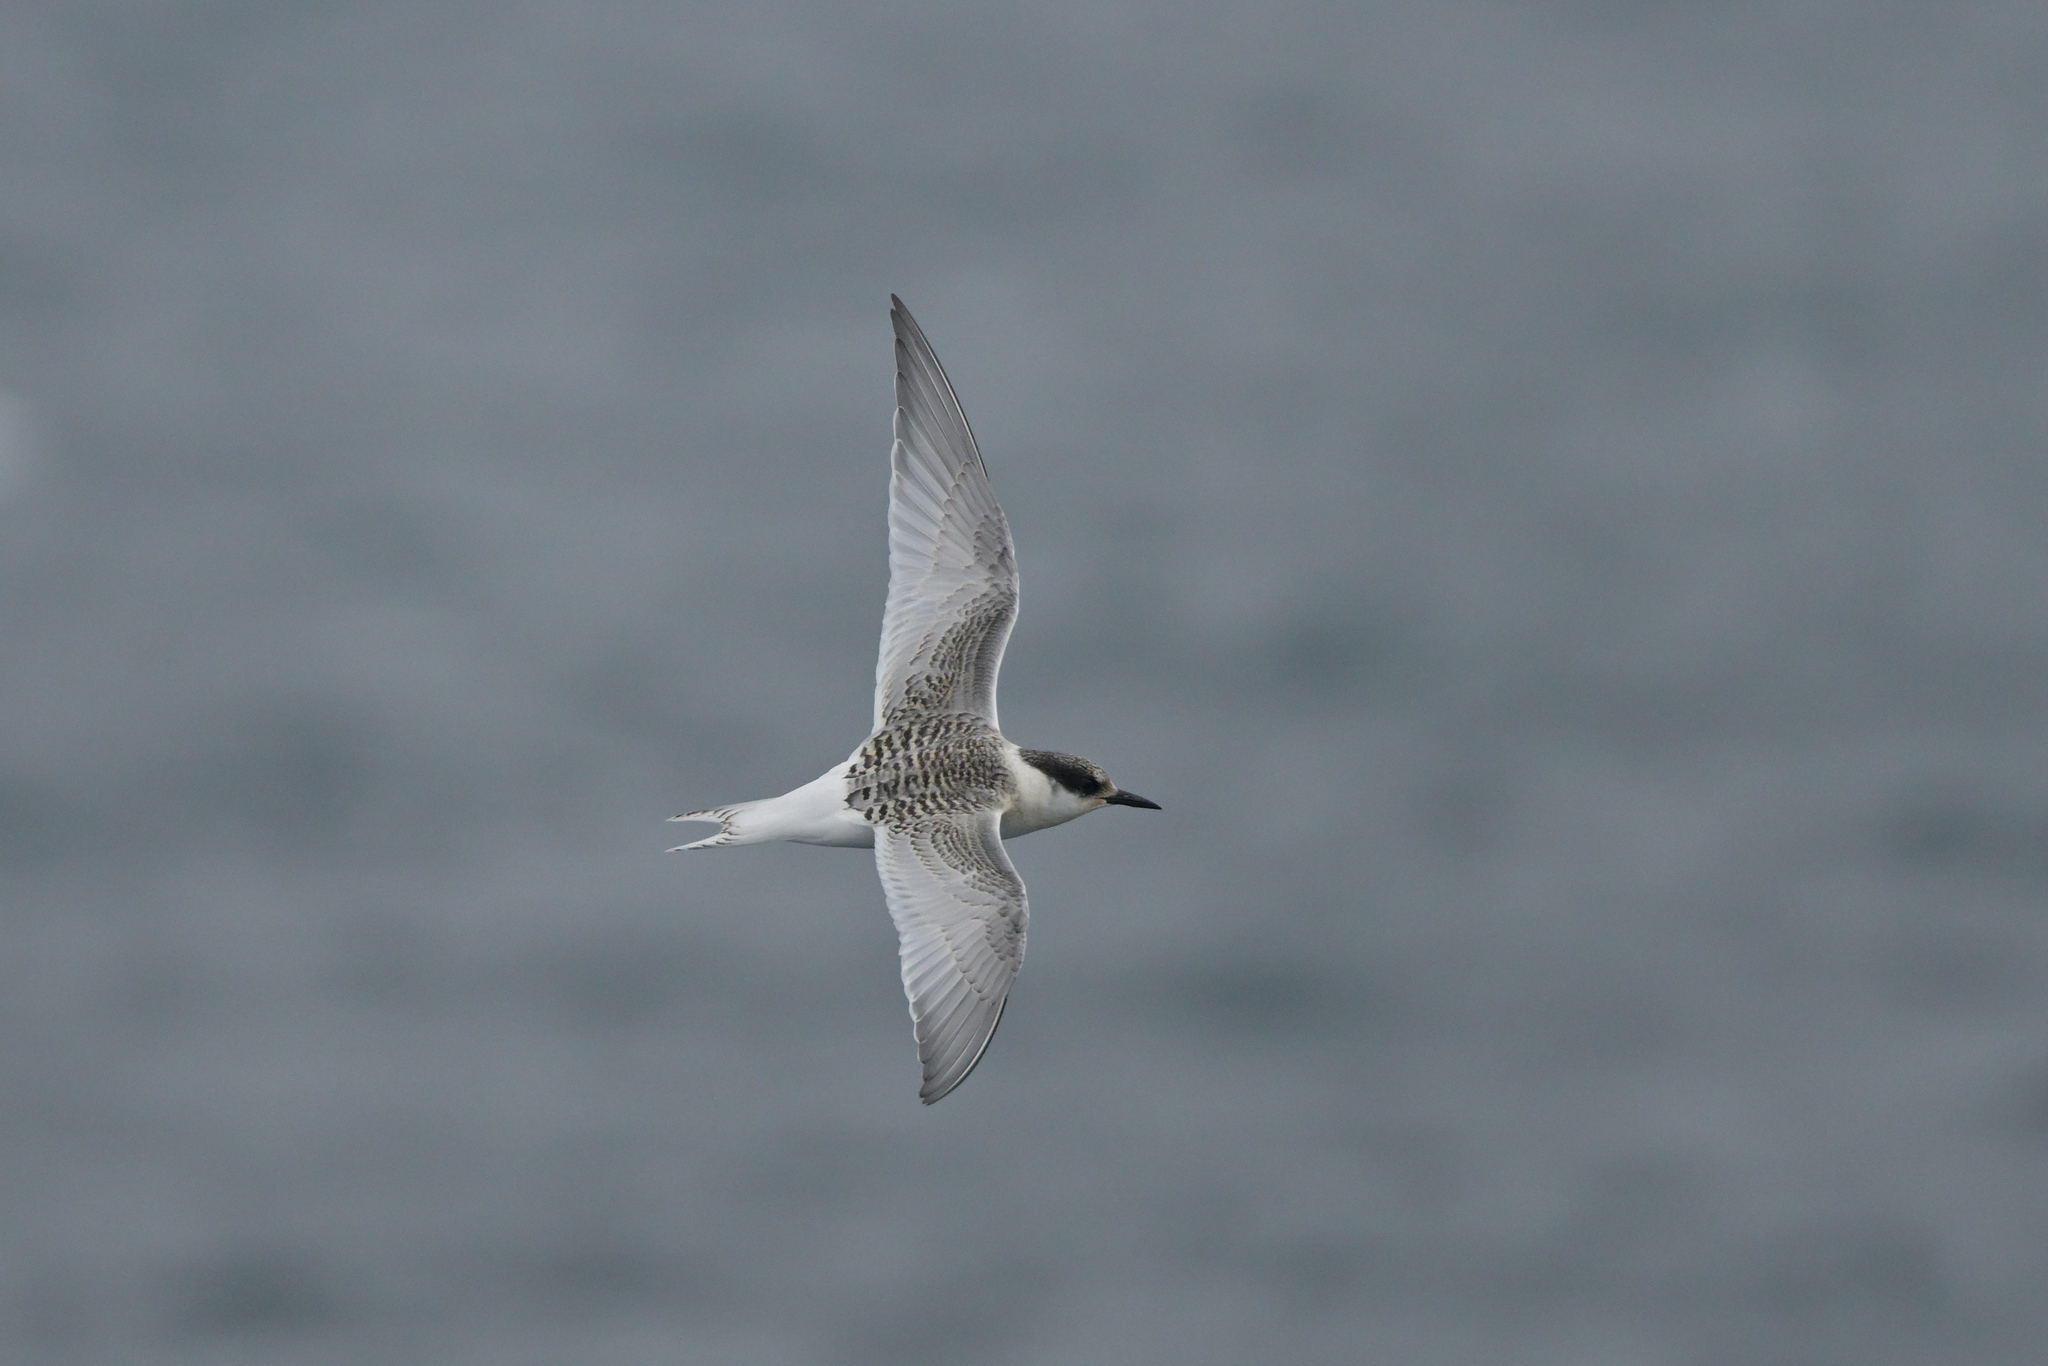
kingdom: Animalia
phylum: Chordata
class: Aves
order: Charadriiformes
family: Laridae
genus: Sterna
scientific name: Sterna vittata
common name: Antarctic tern
